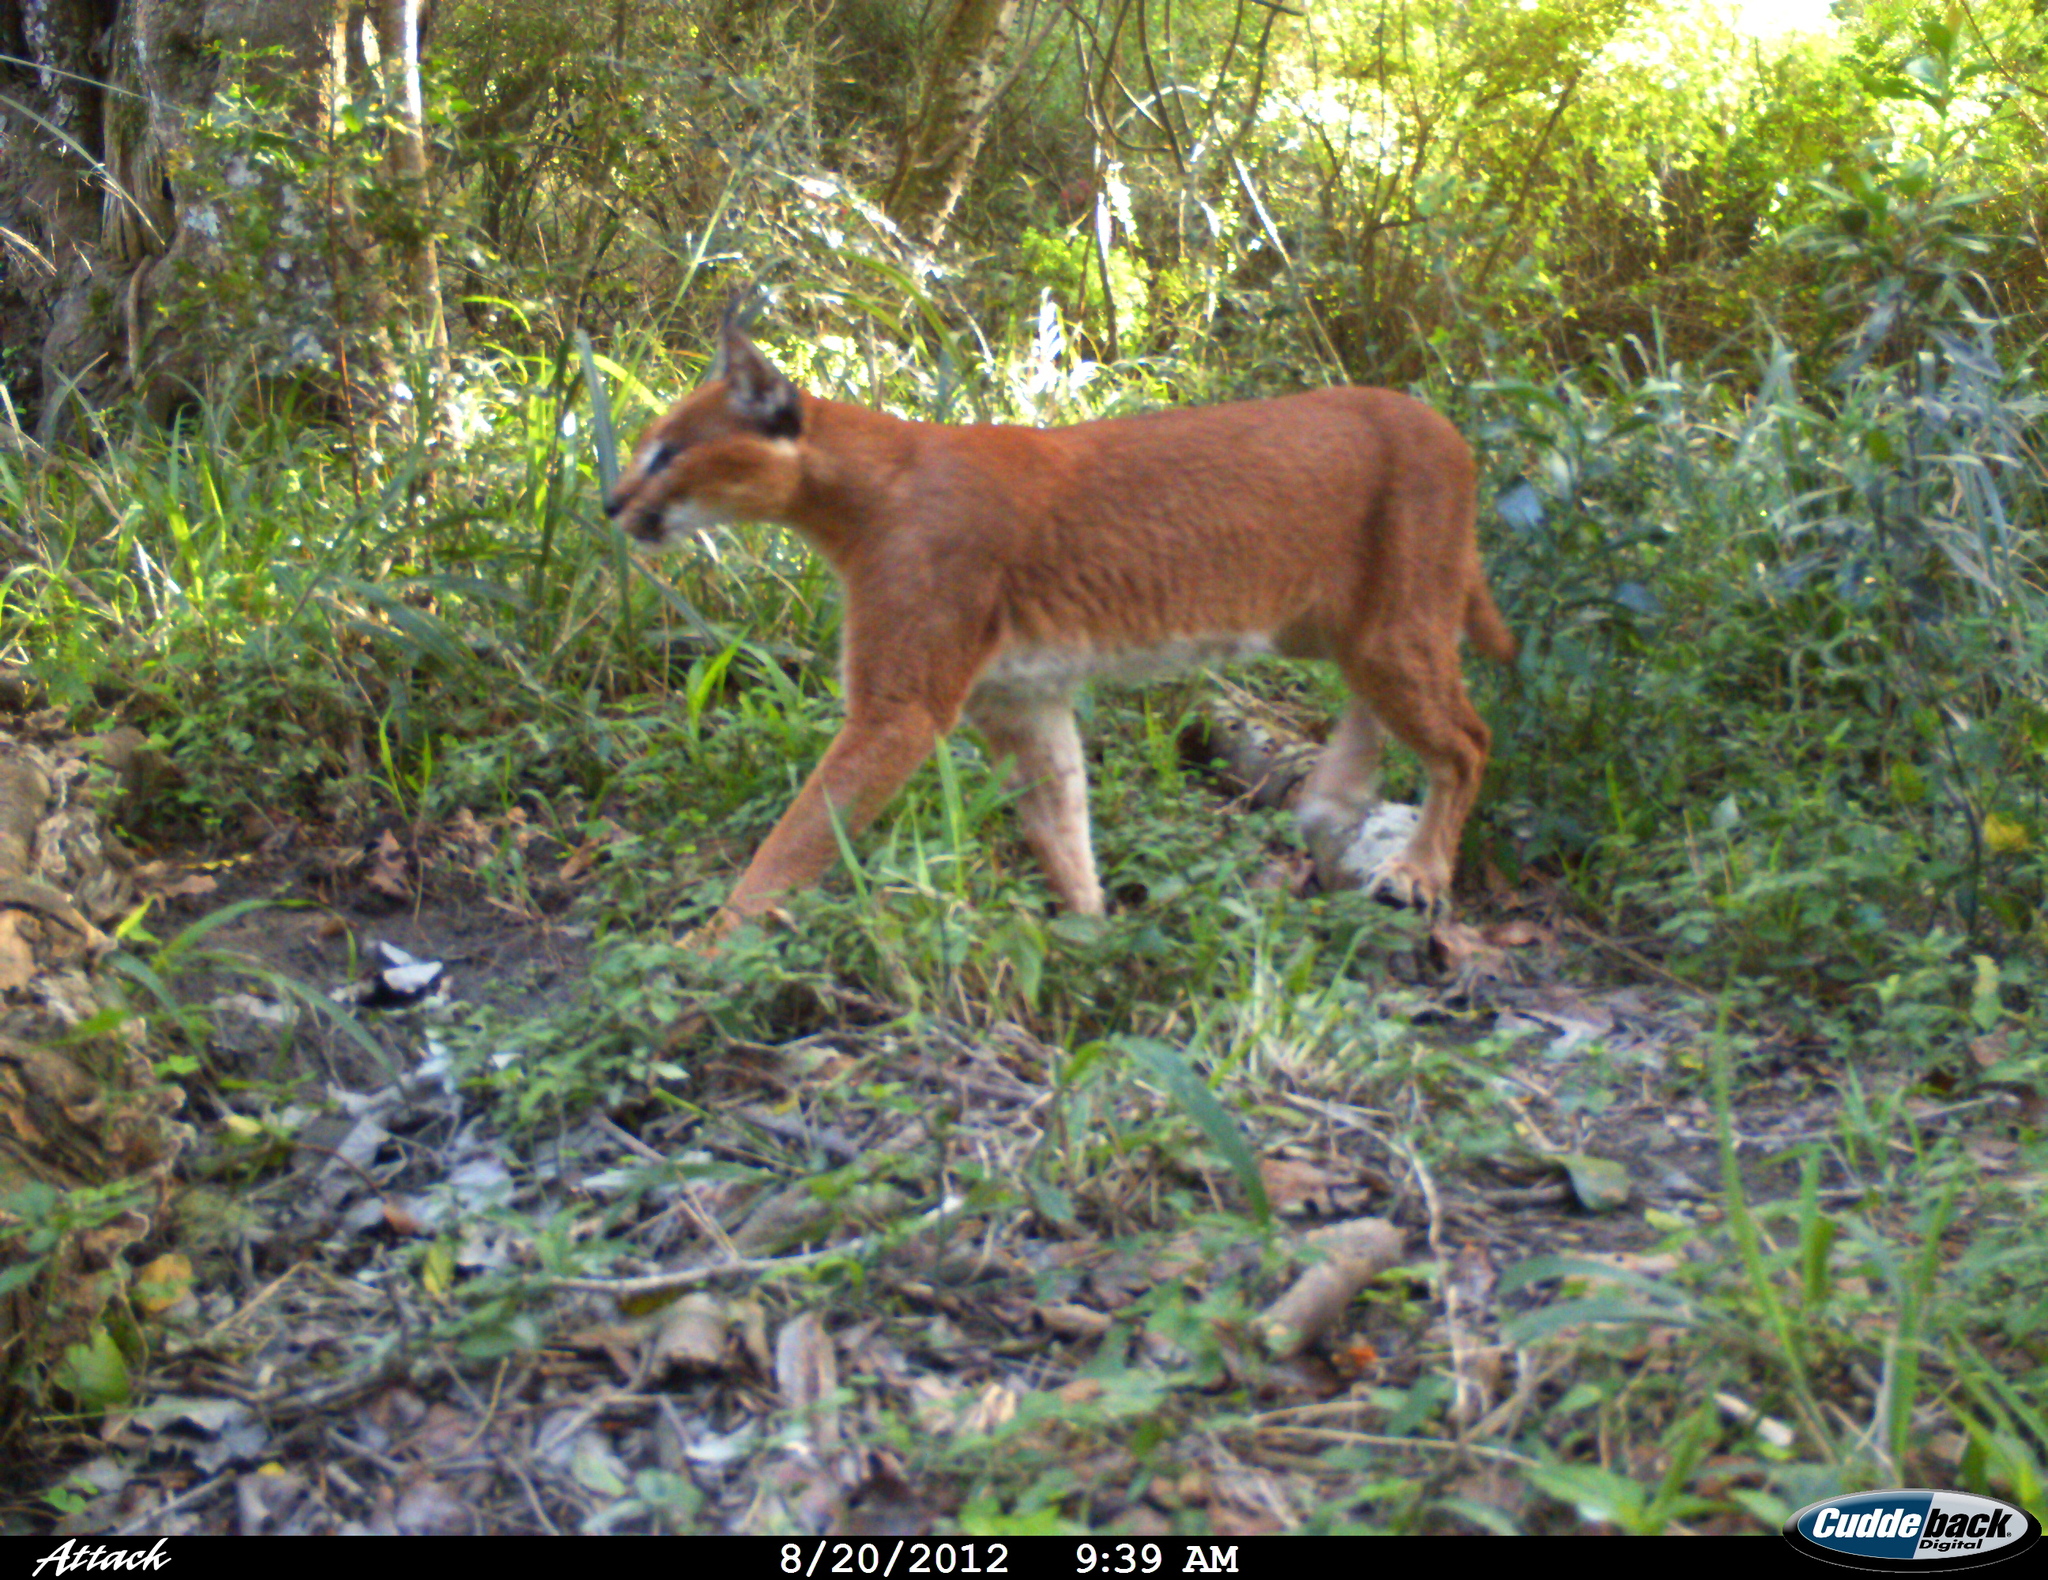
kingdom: Animalia
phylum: Chordata
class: Mammalia
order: Carnivora
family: Felidae
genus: Caracal
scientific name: Caracal caracal
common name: Caracal
